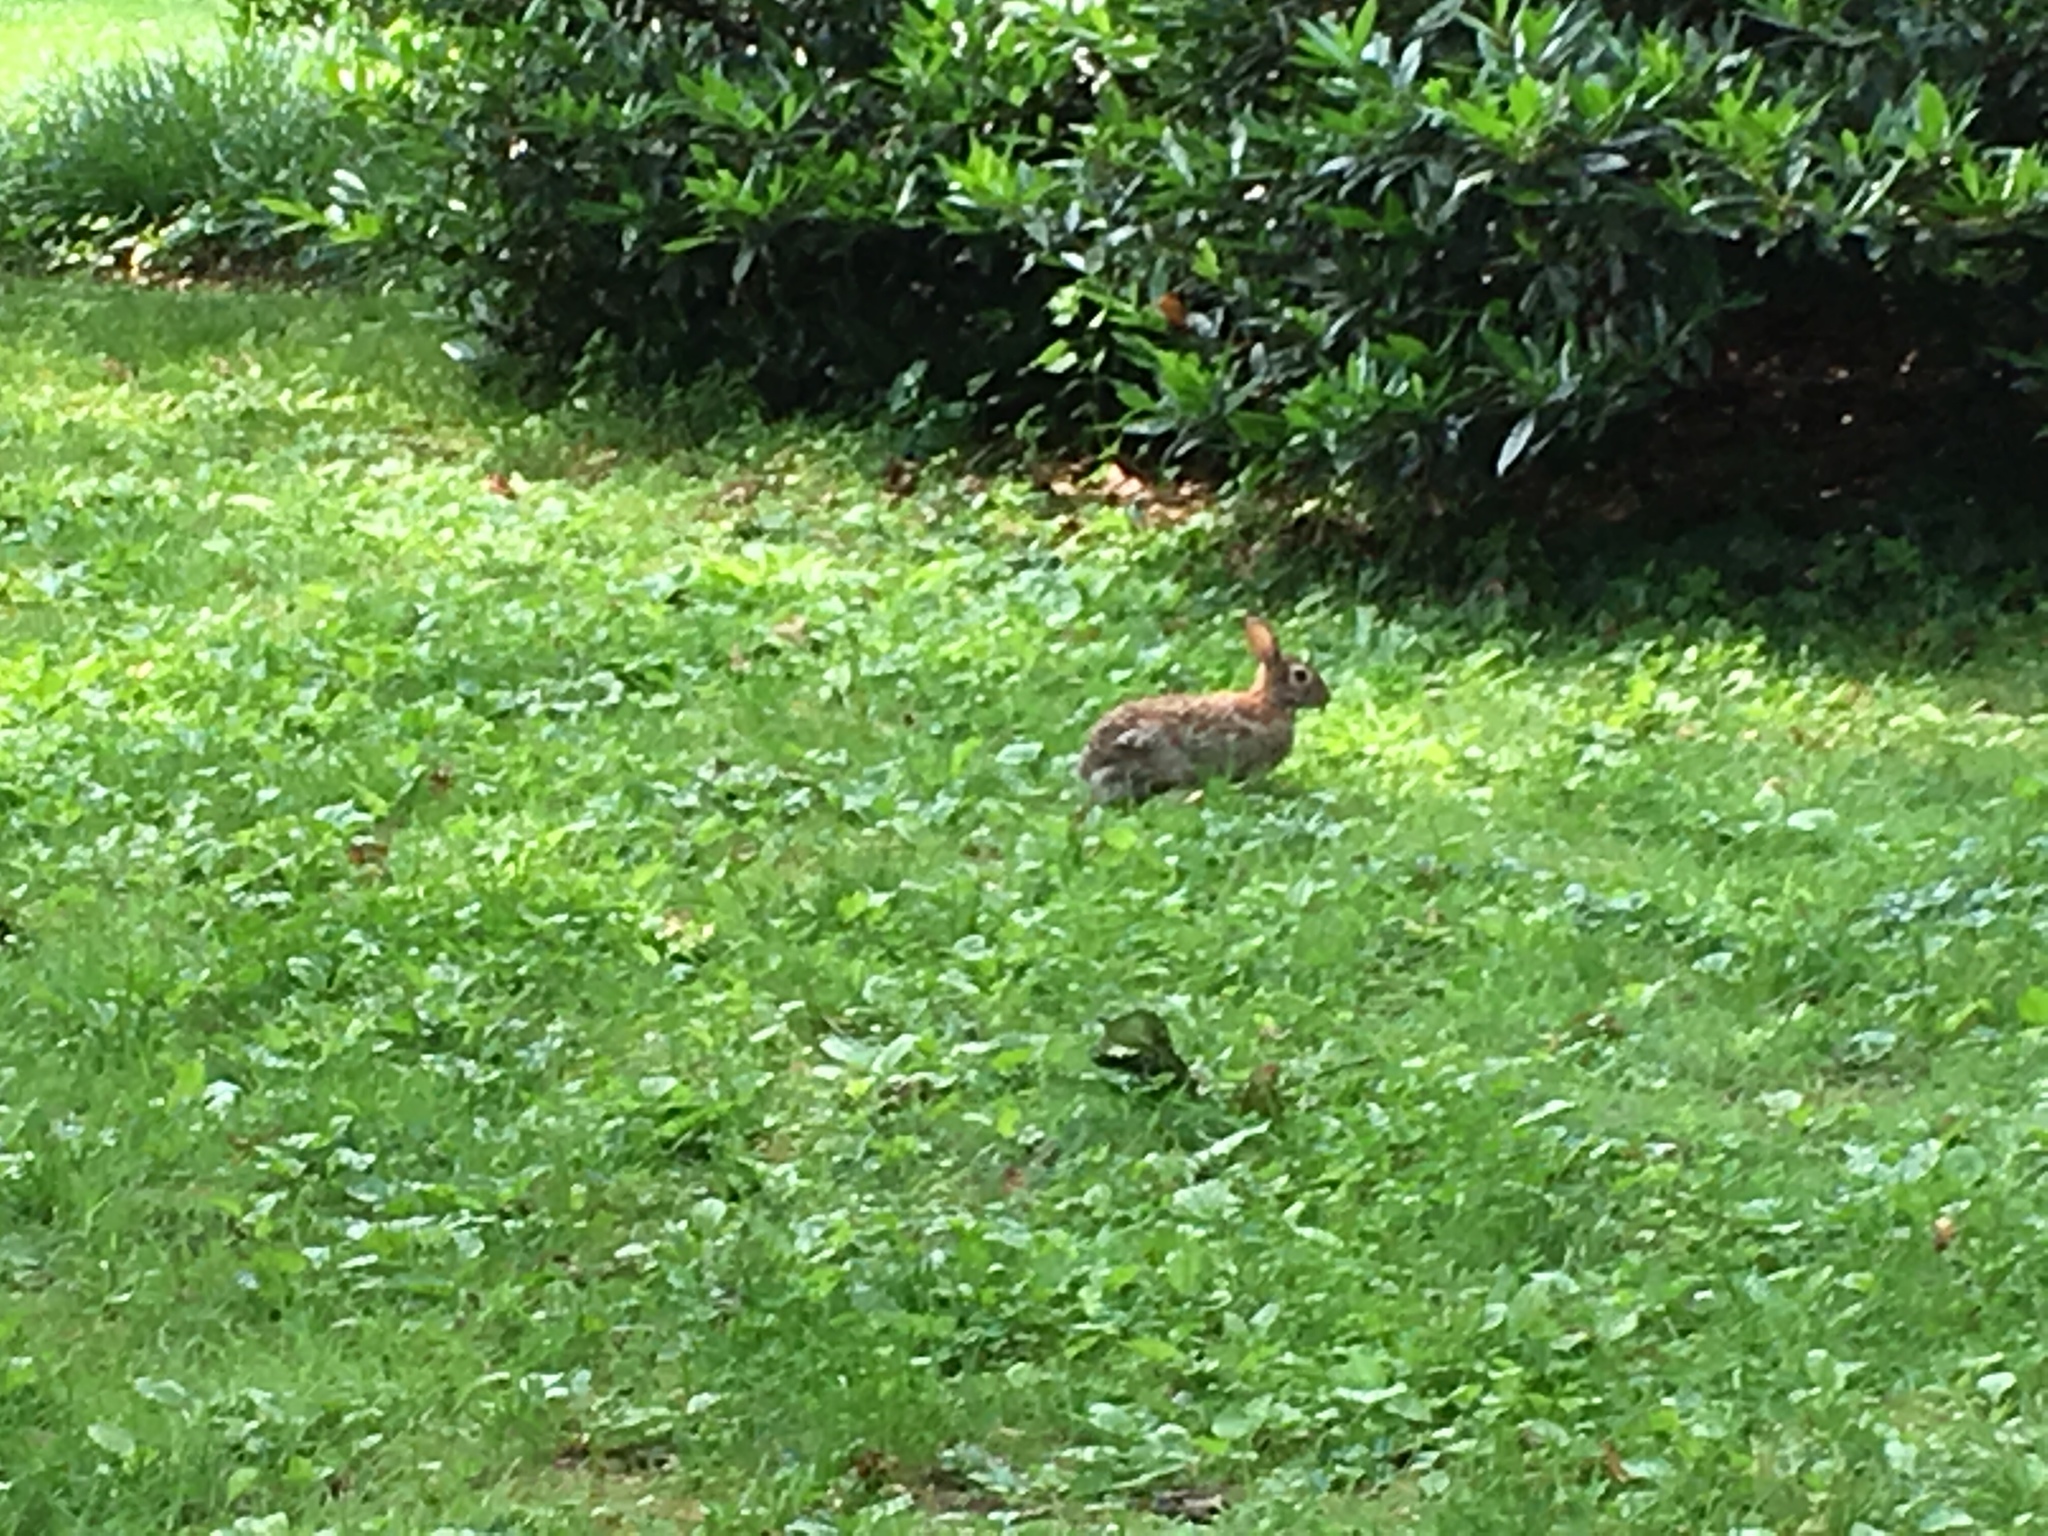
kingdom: Animalia
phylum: Chordata
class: Mammalia
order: Lagomorpha
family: Leporidae
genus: Sylvilagus
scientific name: Sylvilagus floridanus
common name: Eastern cottontail
